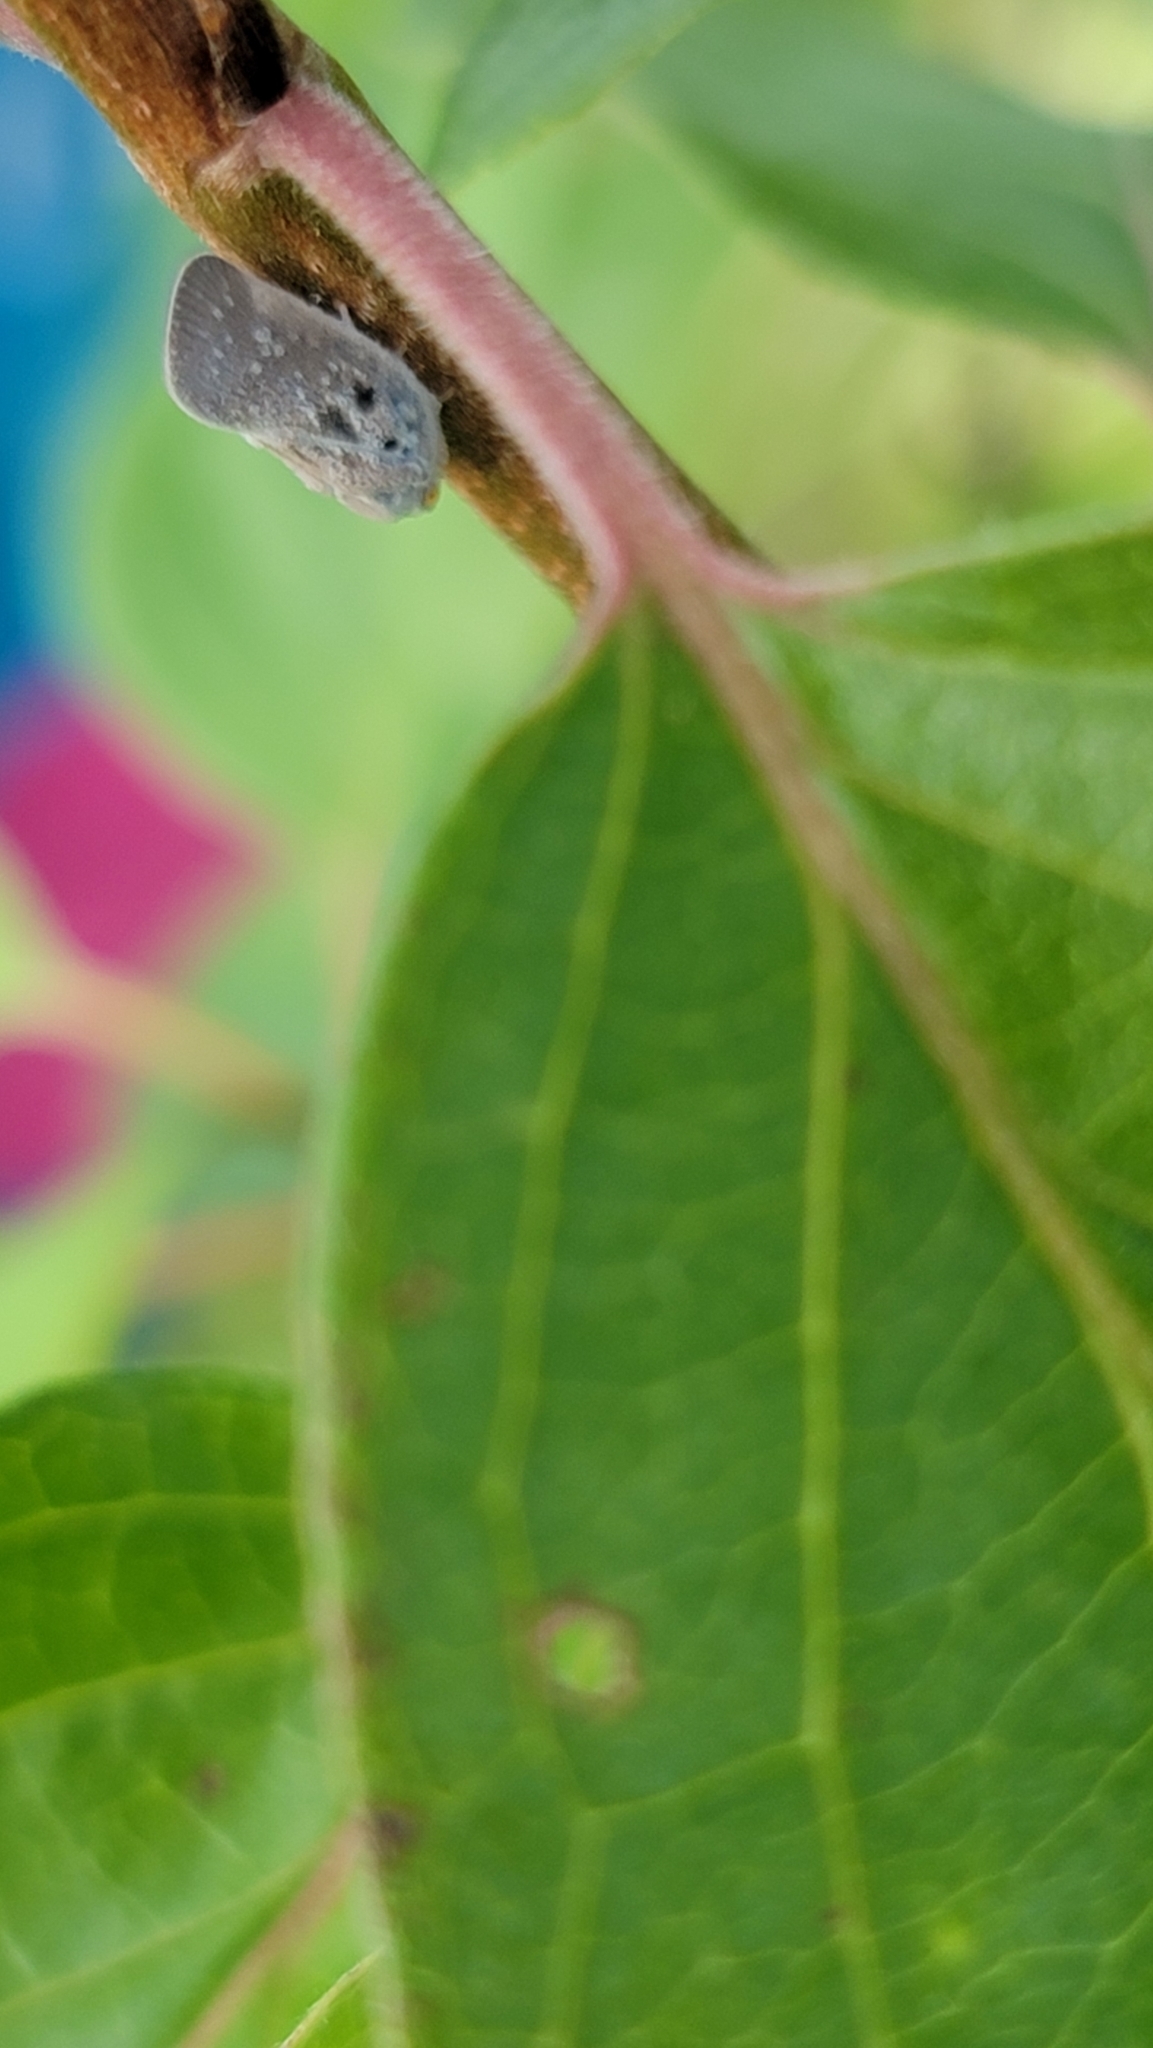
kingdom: Animalia
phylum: Arthropoda
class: Insecta
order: Hemiptera
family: Flatidae
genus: Metcalfa
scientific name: Metcalfa pruinosa
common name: Citrus flatid planthopper
